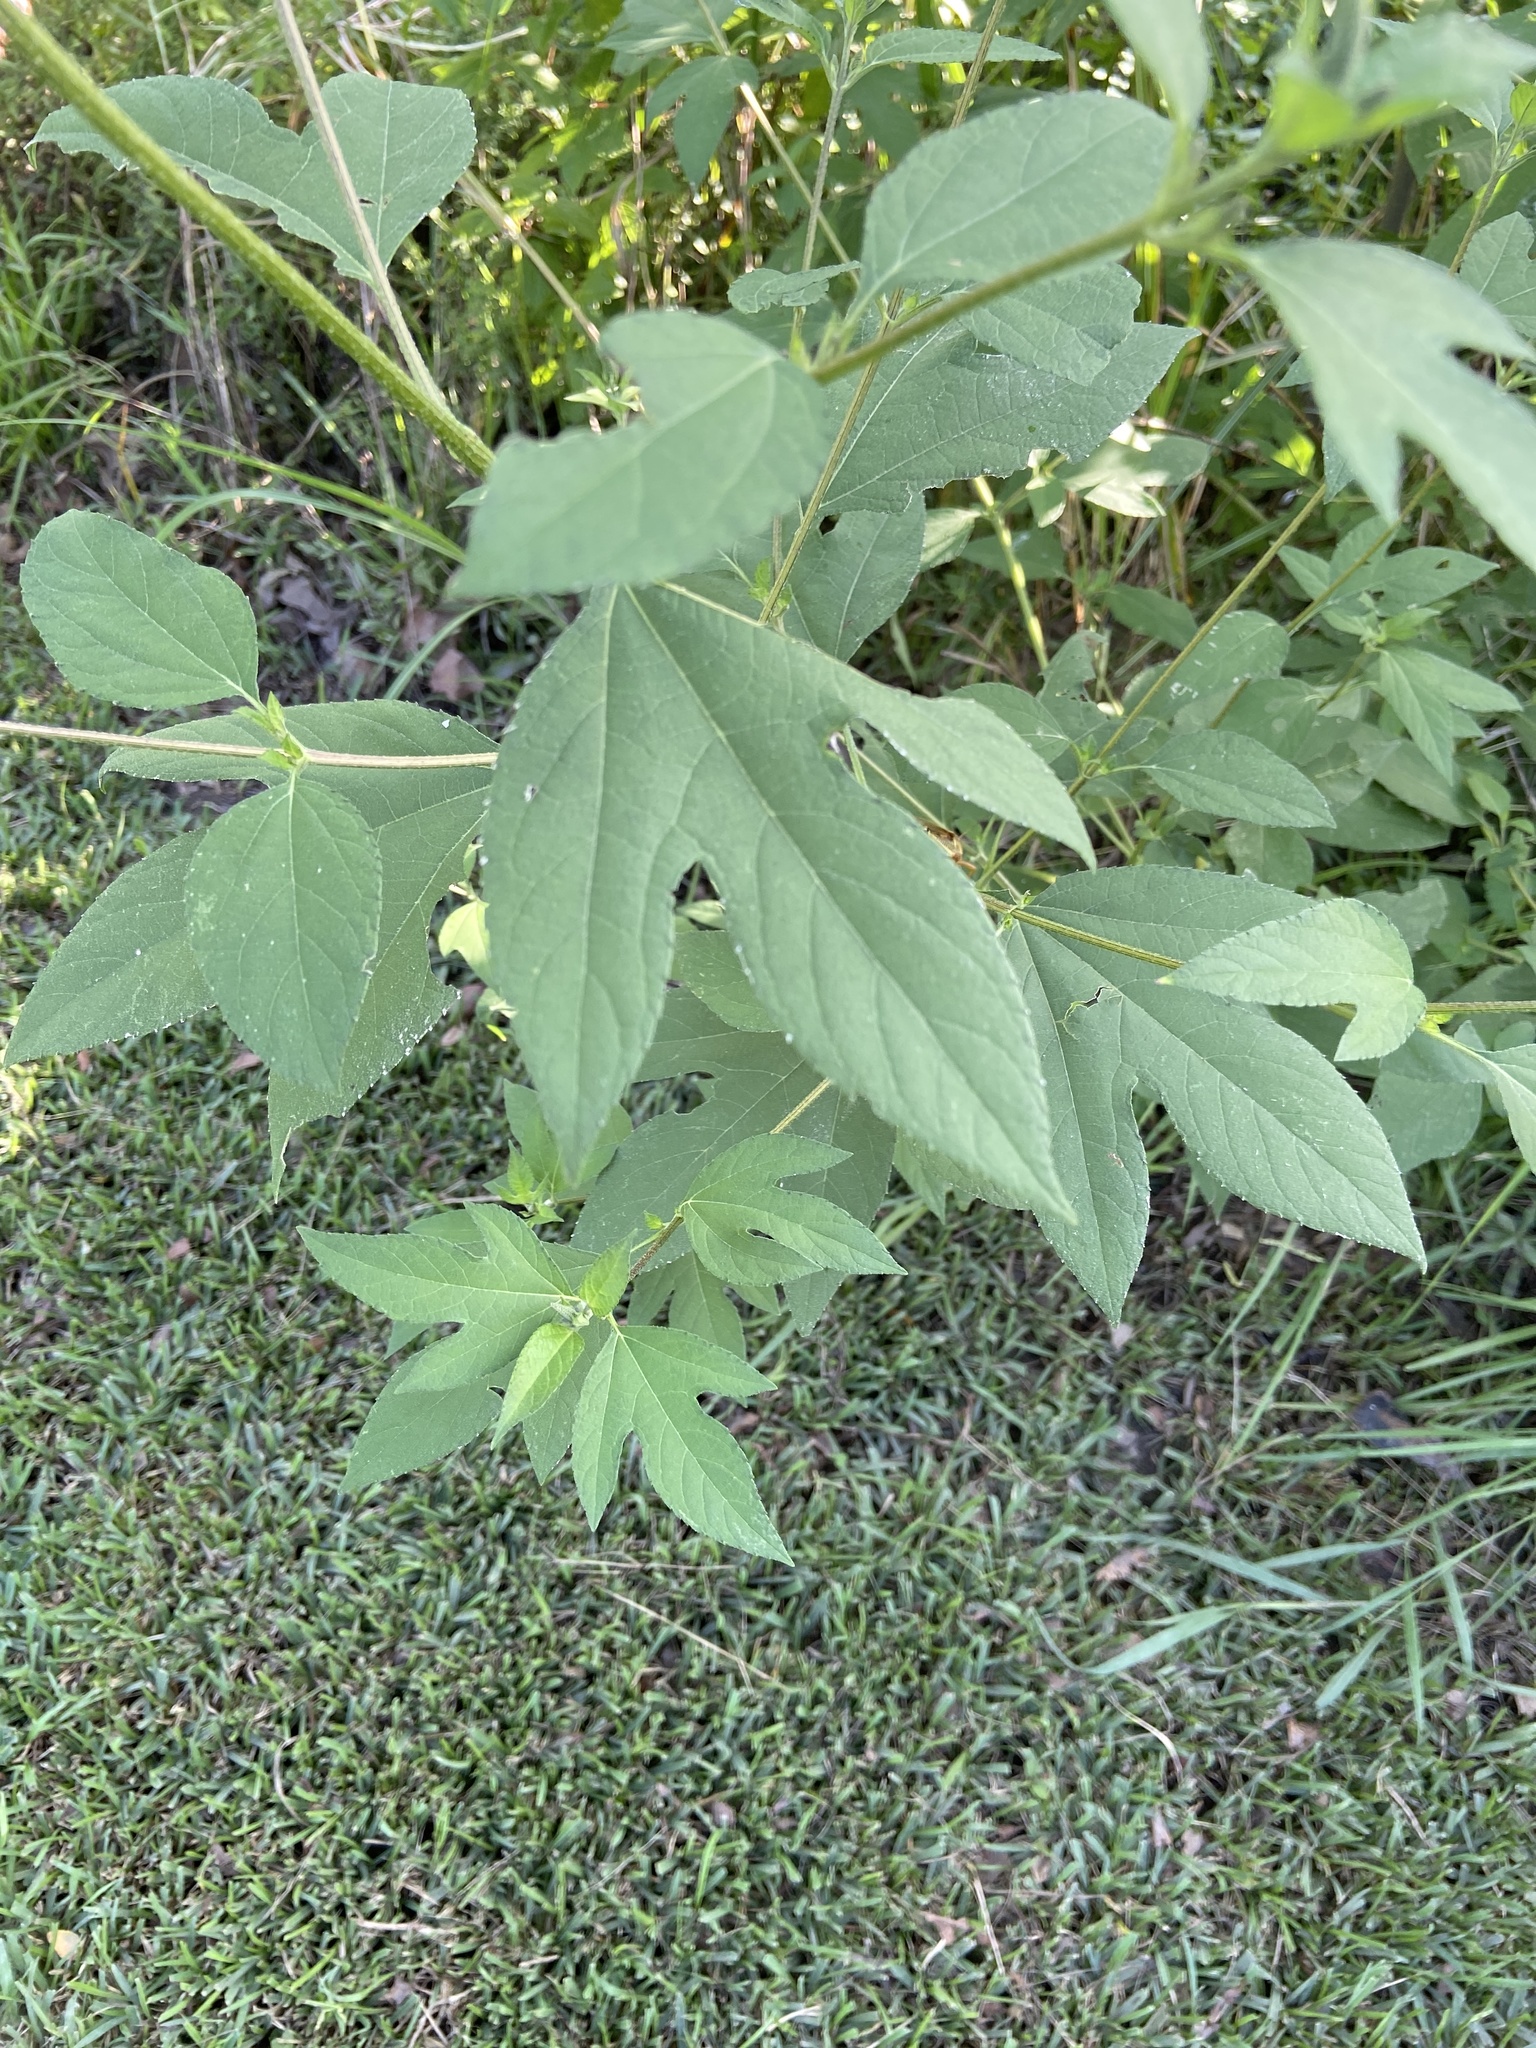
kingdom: Plantae
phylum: Tracheophyta
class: Magnoliopsida
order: Asterales
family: Asteraceae
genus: Ambrosia
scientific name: Ambrosia trifida
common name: Giant ragweed
